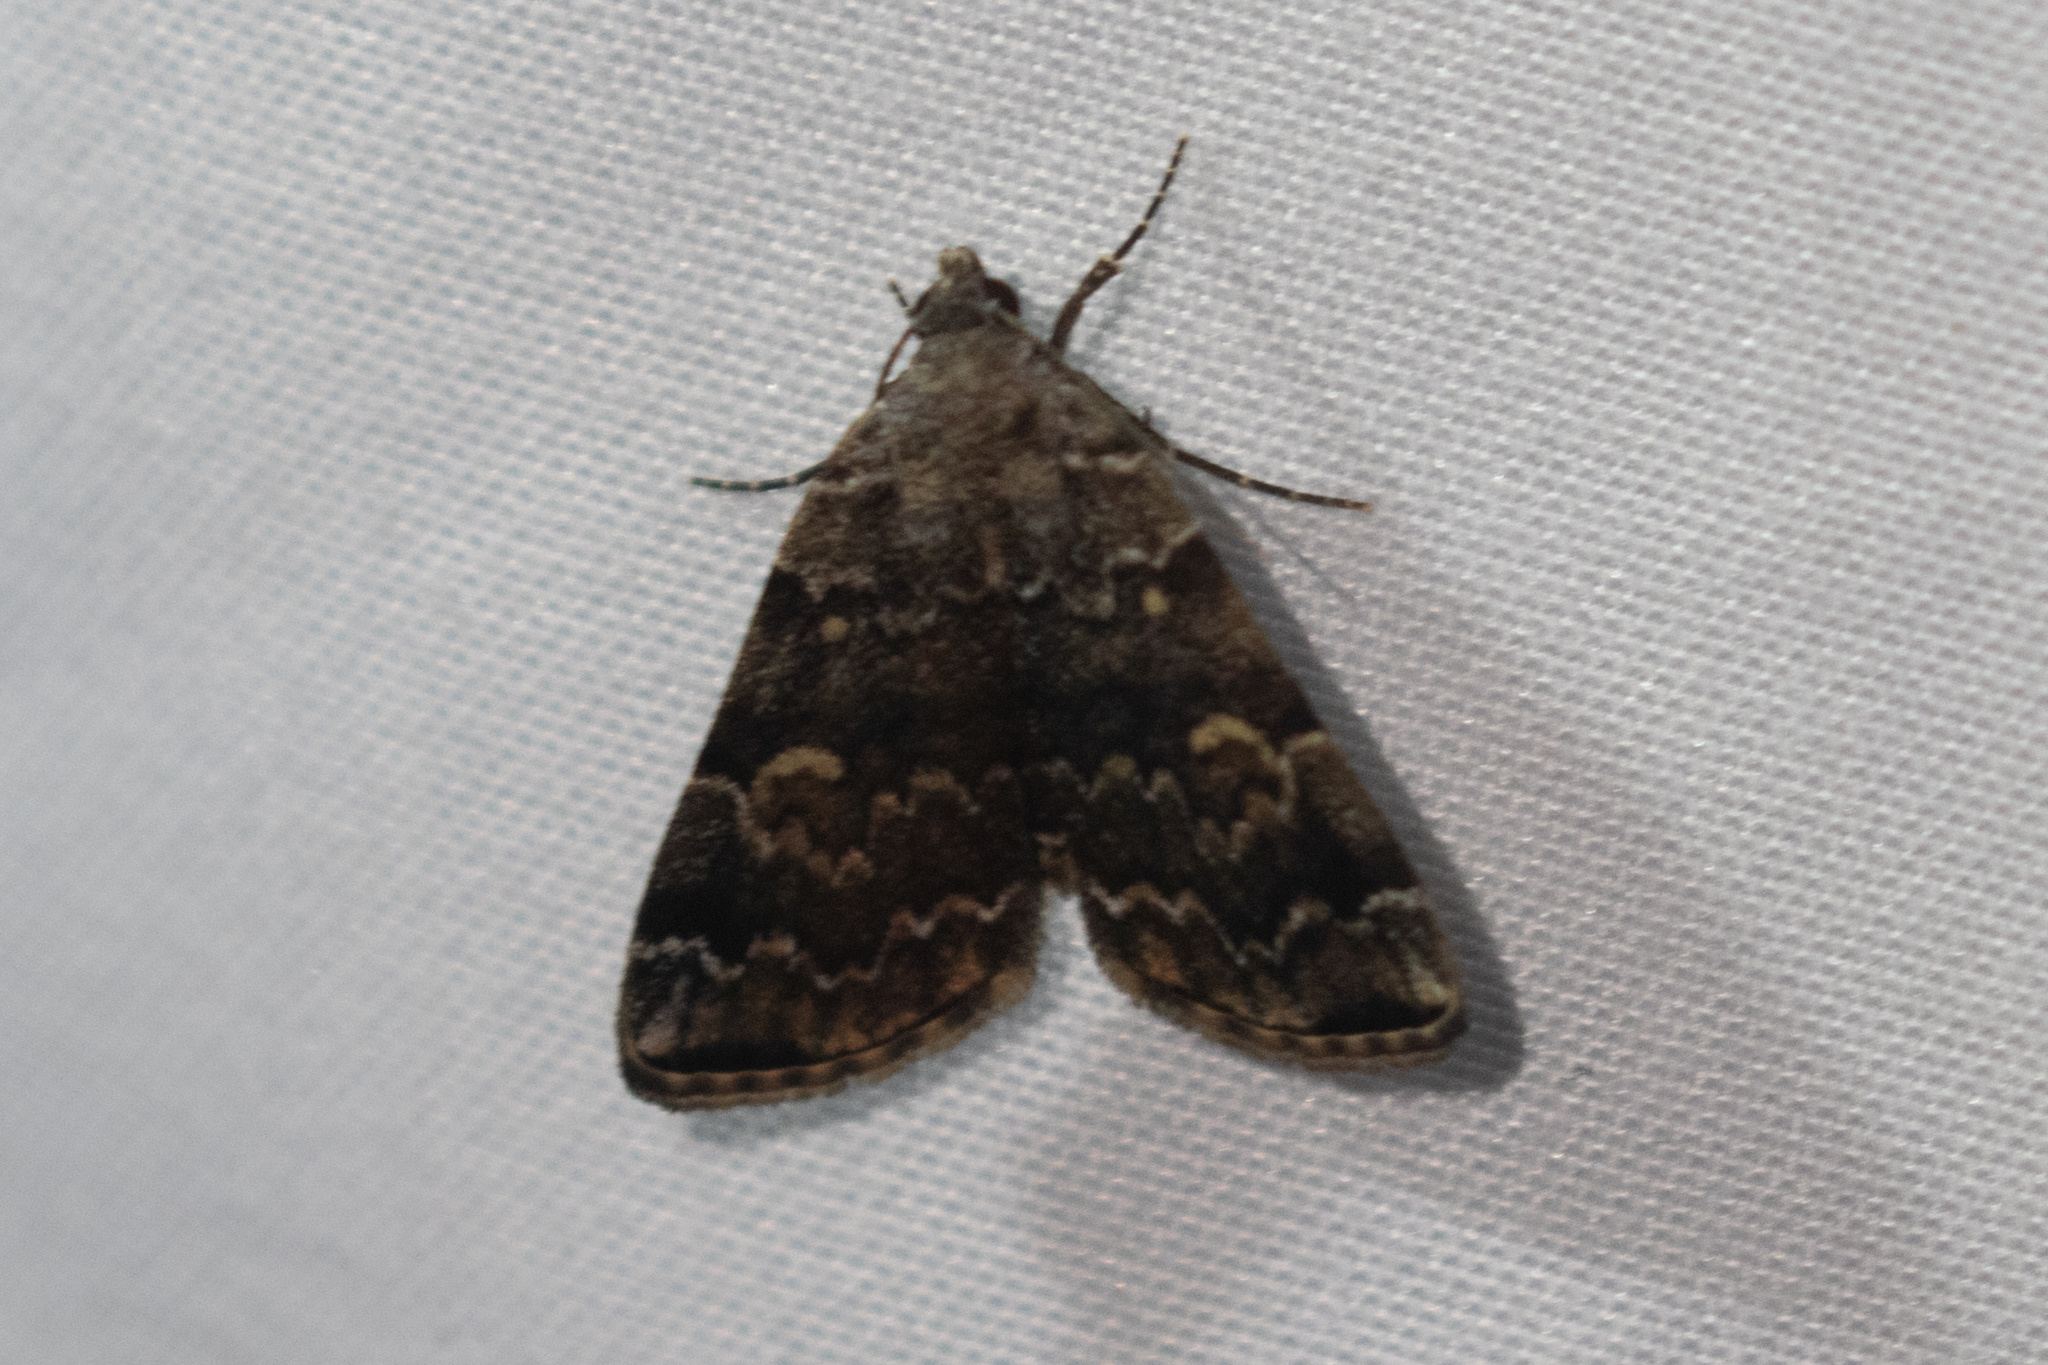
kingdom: Animalia
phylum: Arthropoda
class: Insecta
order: Lepidoptera
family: Erebidae
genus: Idia
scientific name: Idia americalis
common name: American idia moth
